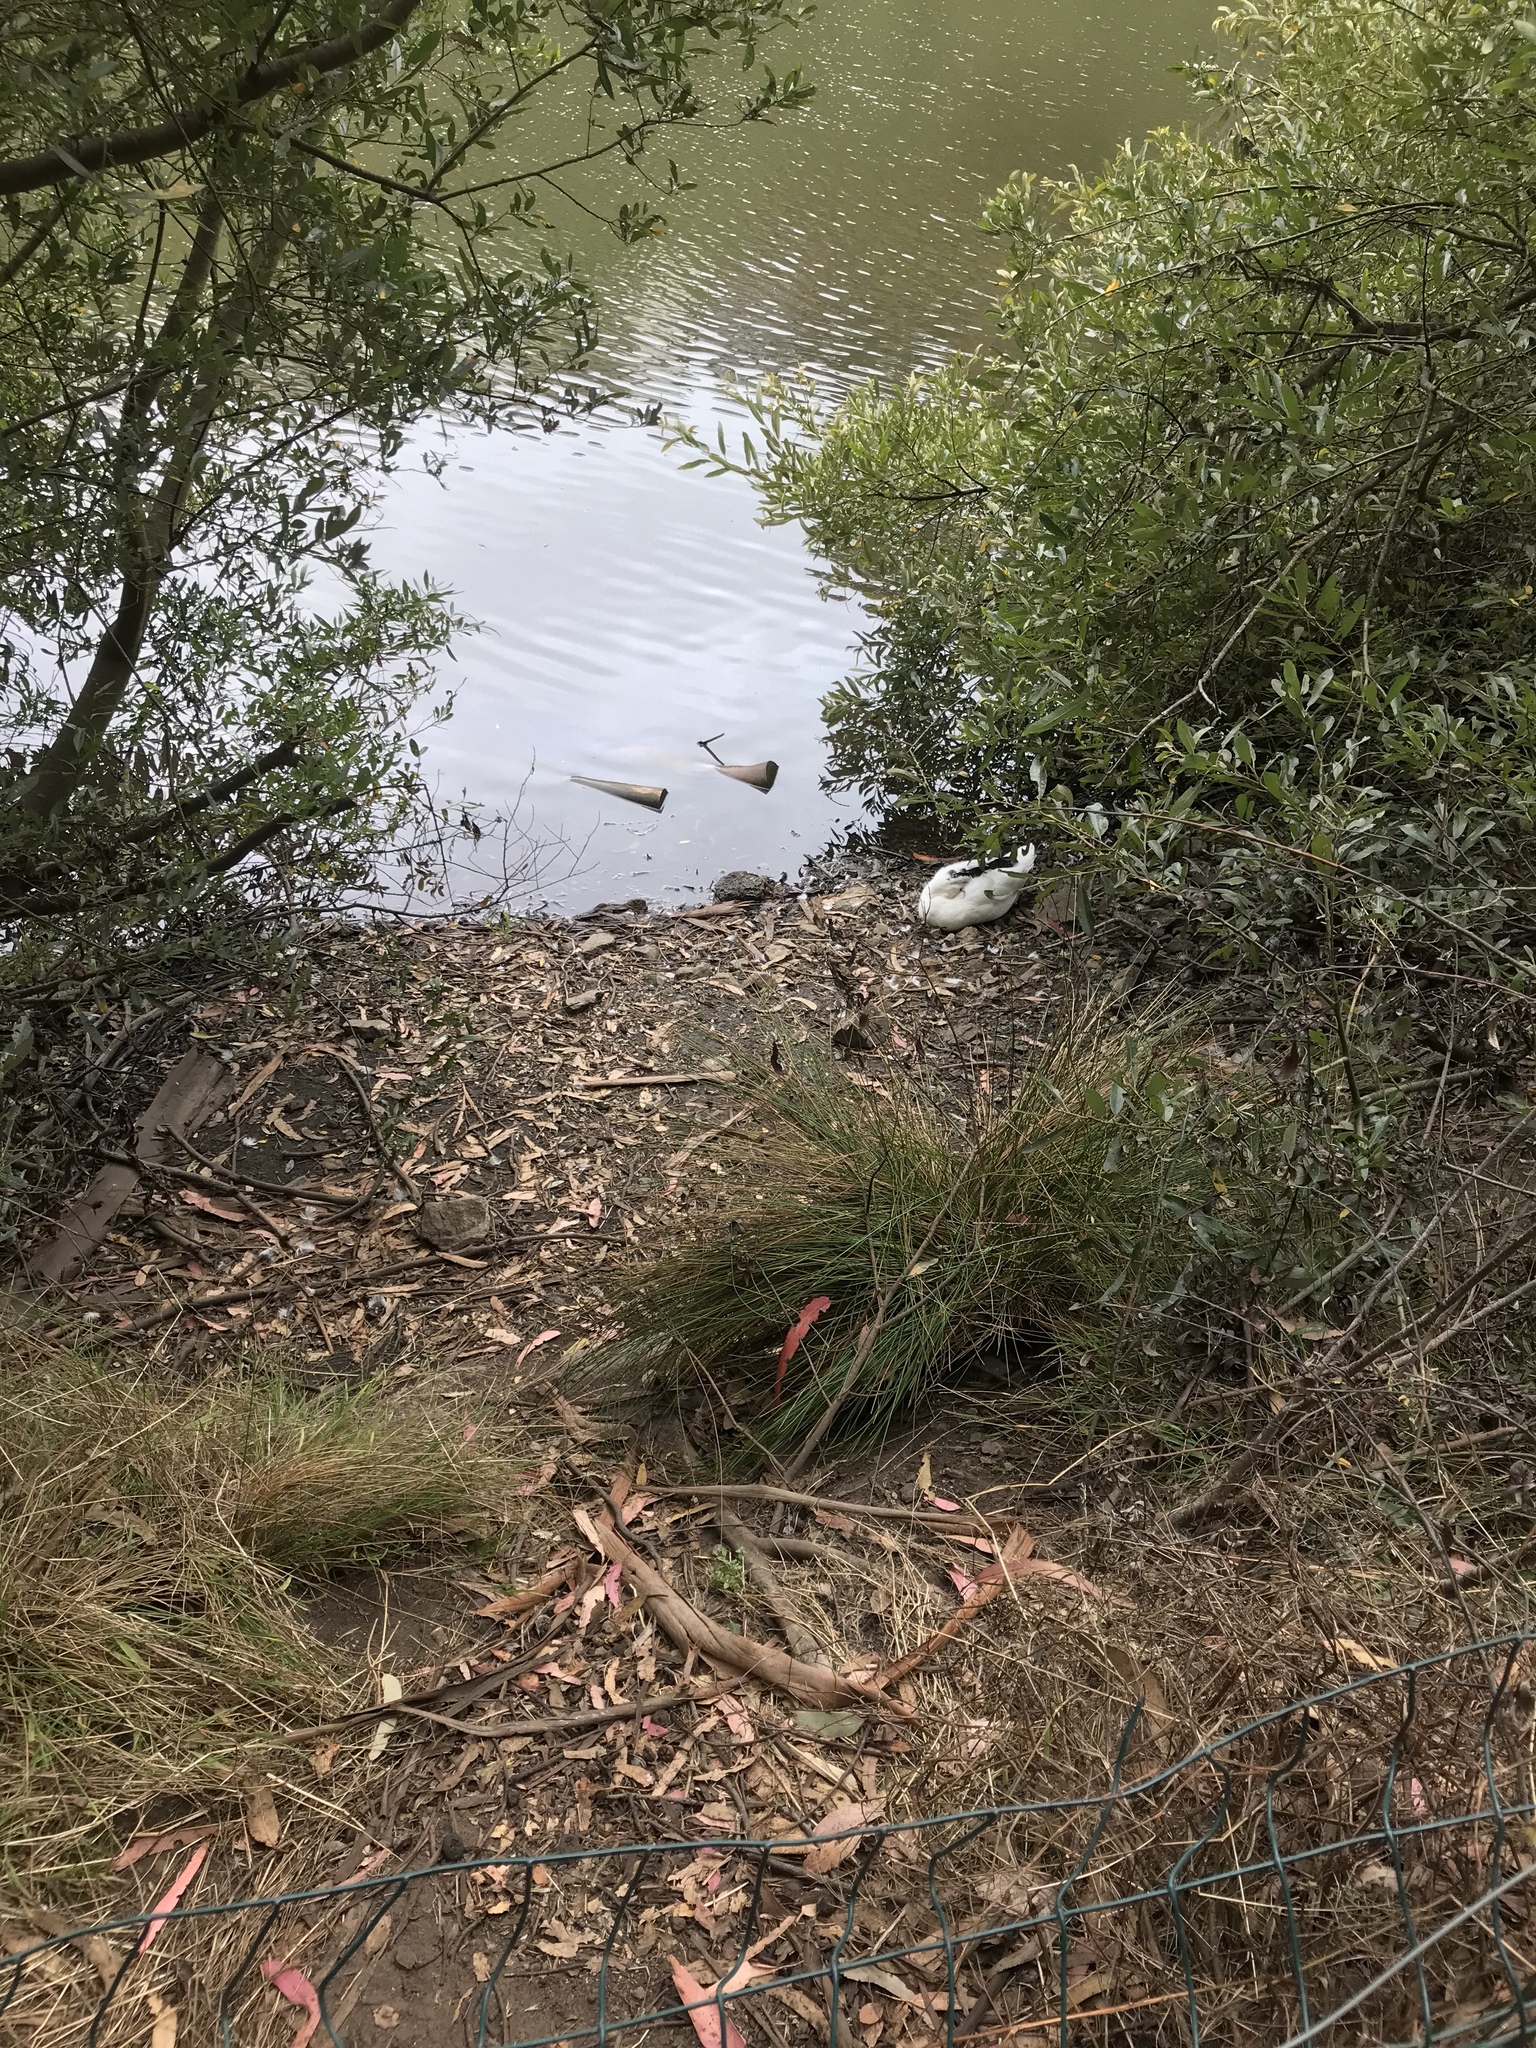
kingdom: Animalia
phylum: Chordata
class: Aves
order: Anseriformes
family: Anatidae
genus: Anas
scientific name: Anas platyrhynchos
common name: Mallard
